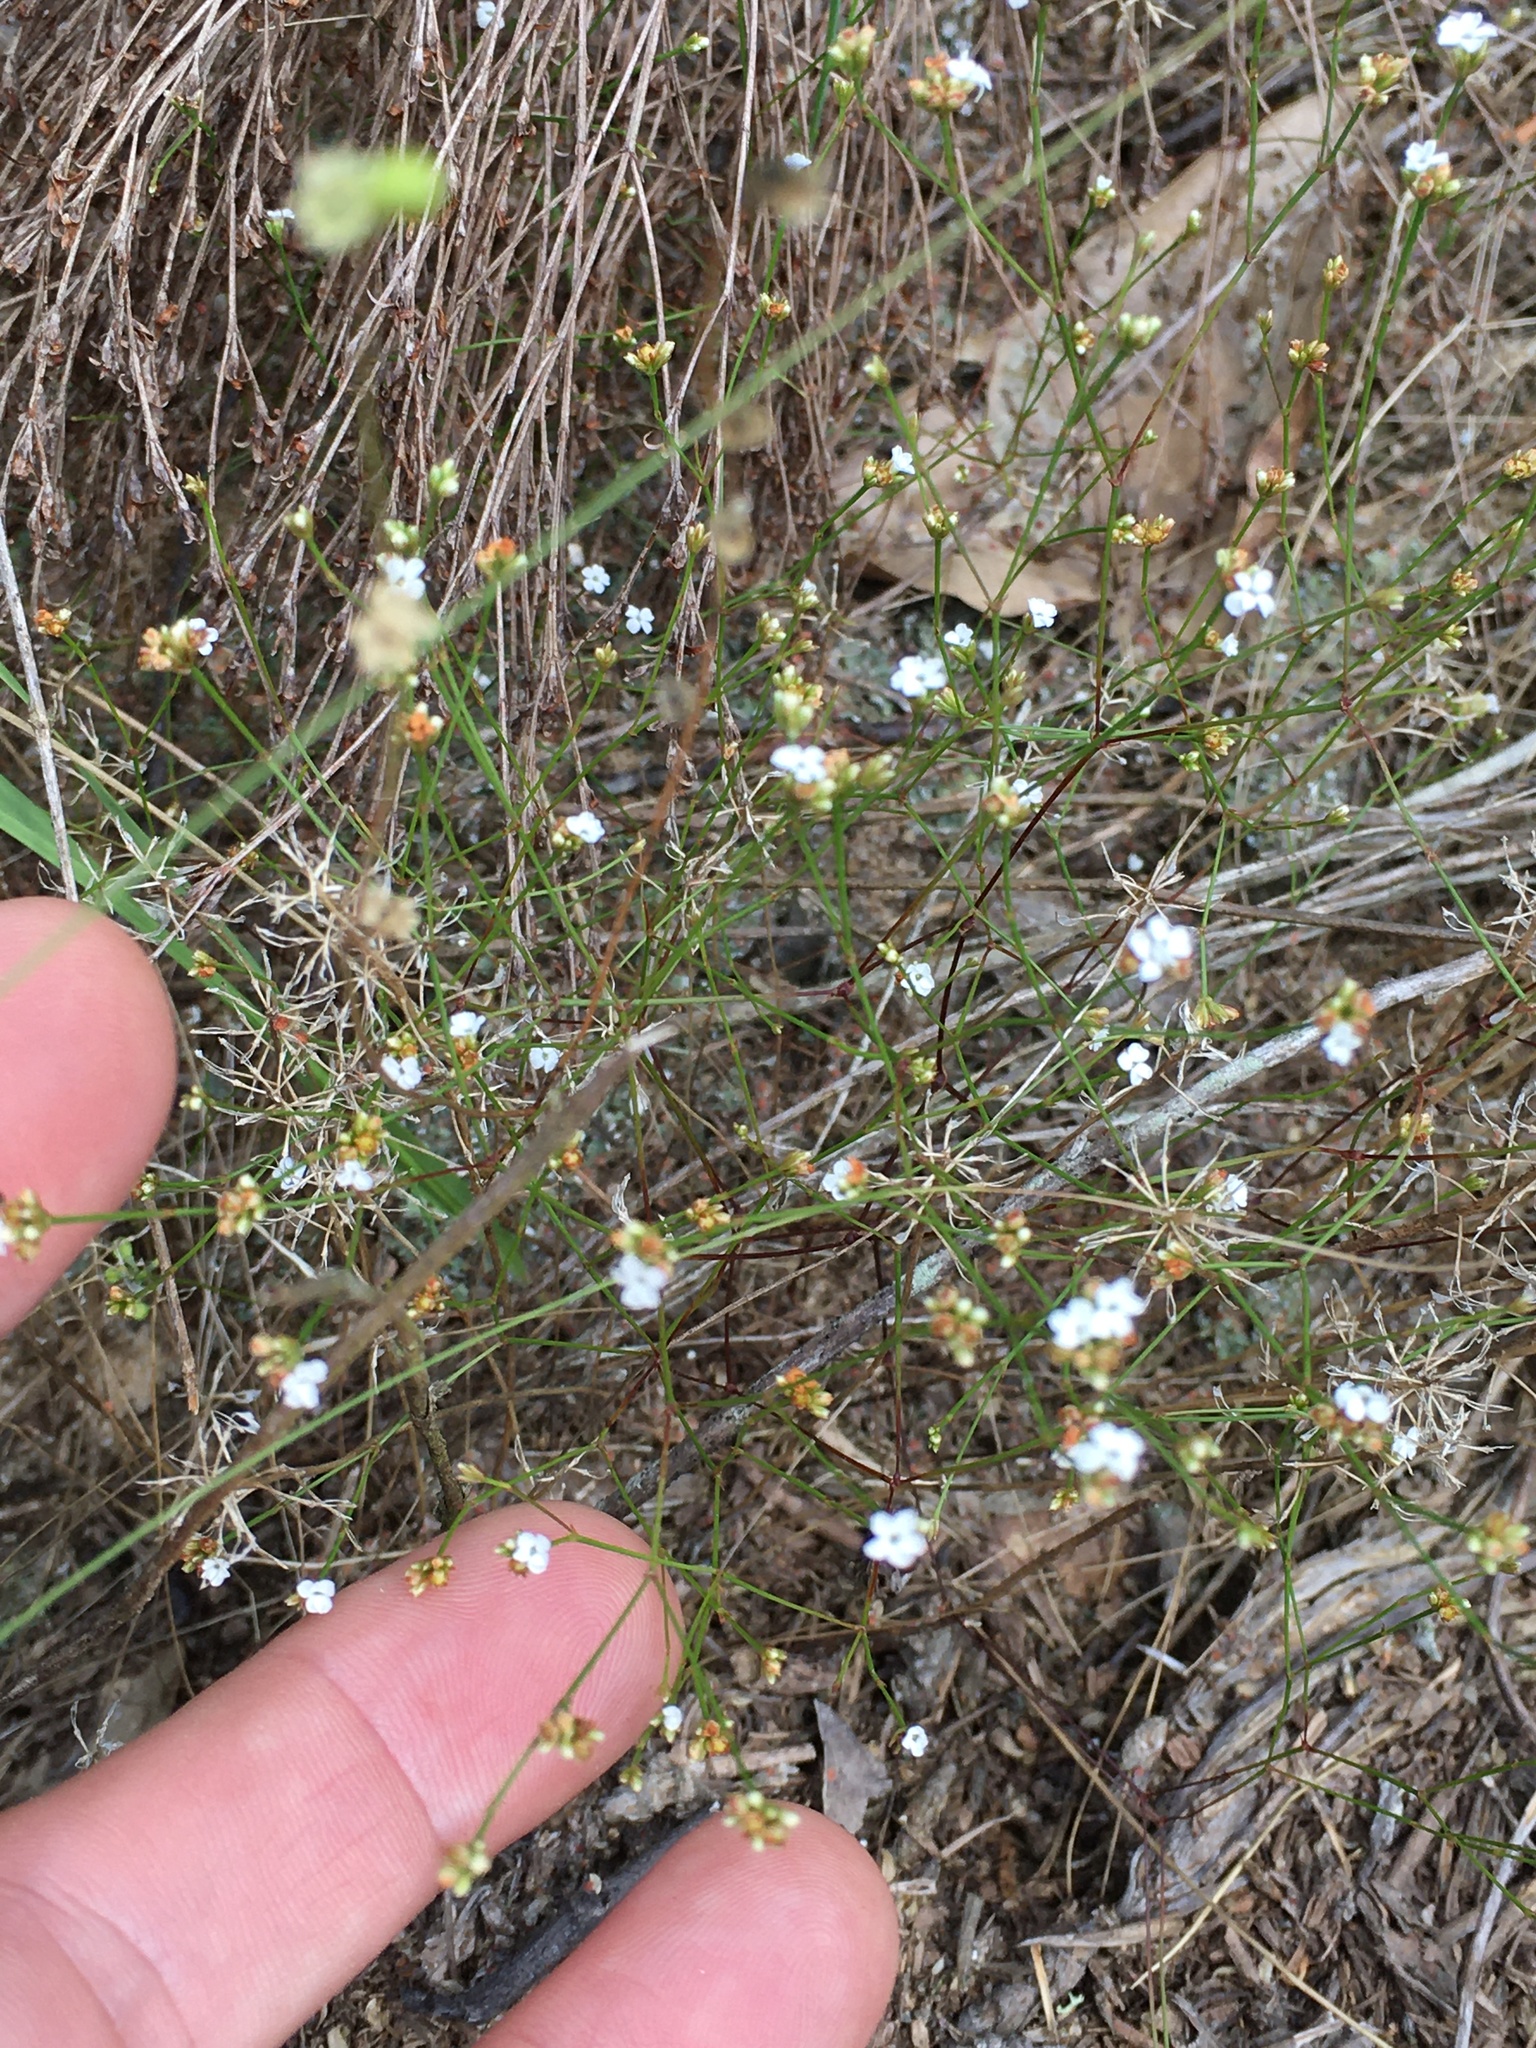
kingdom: Plantae
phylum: Tracheophyta
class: Magnoliopsida
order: Caryophyllales
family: Caryophyllaceae
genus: Stipulicida
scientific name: Stipulicida setacea
